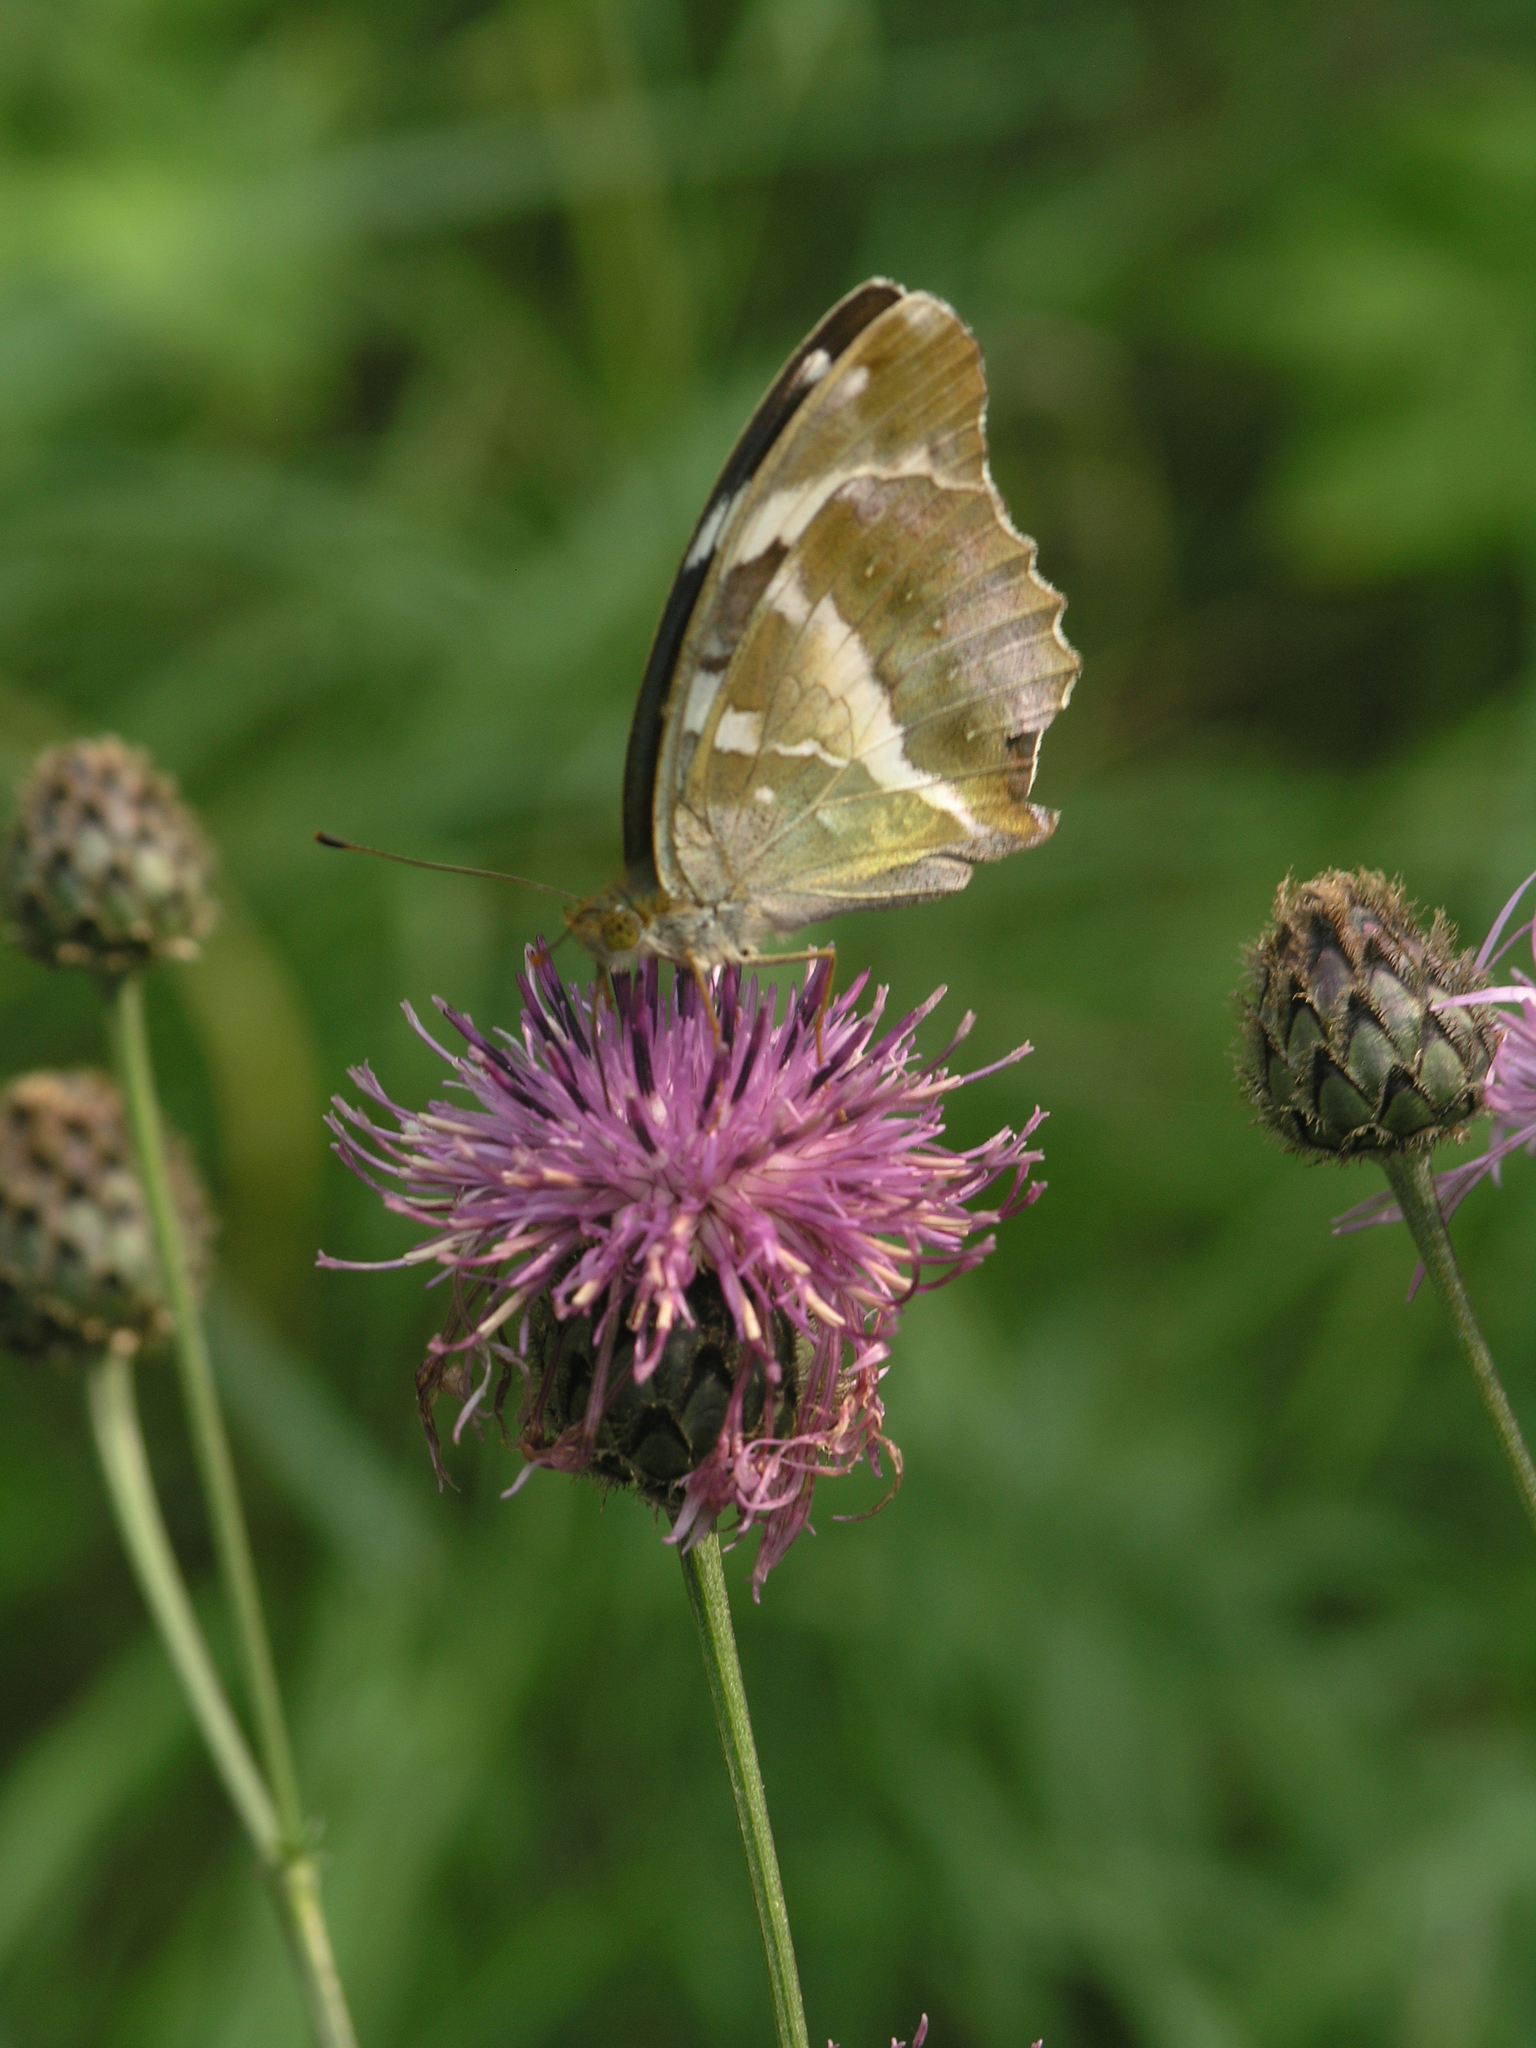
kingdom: Animalia
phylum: Arthropoda
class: Insecta
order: Lepidoptera
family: Nymphalidae
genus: Damora
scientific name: Damora sagana
